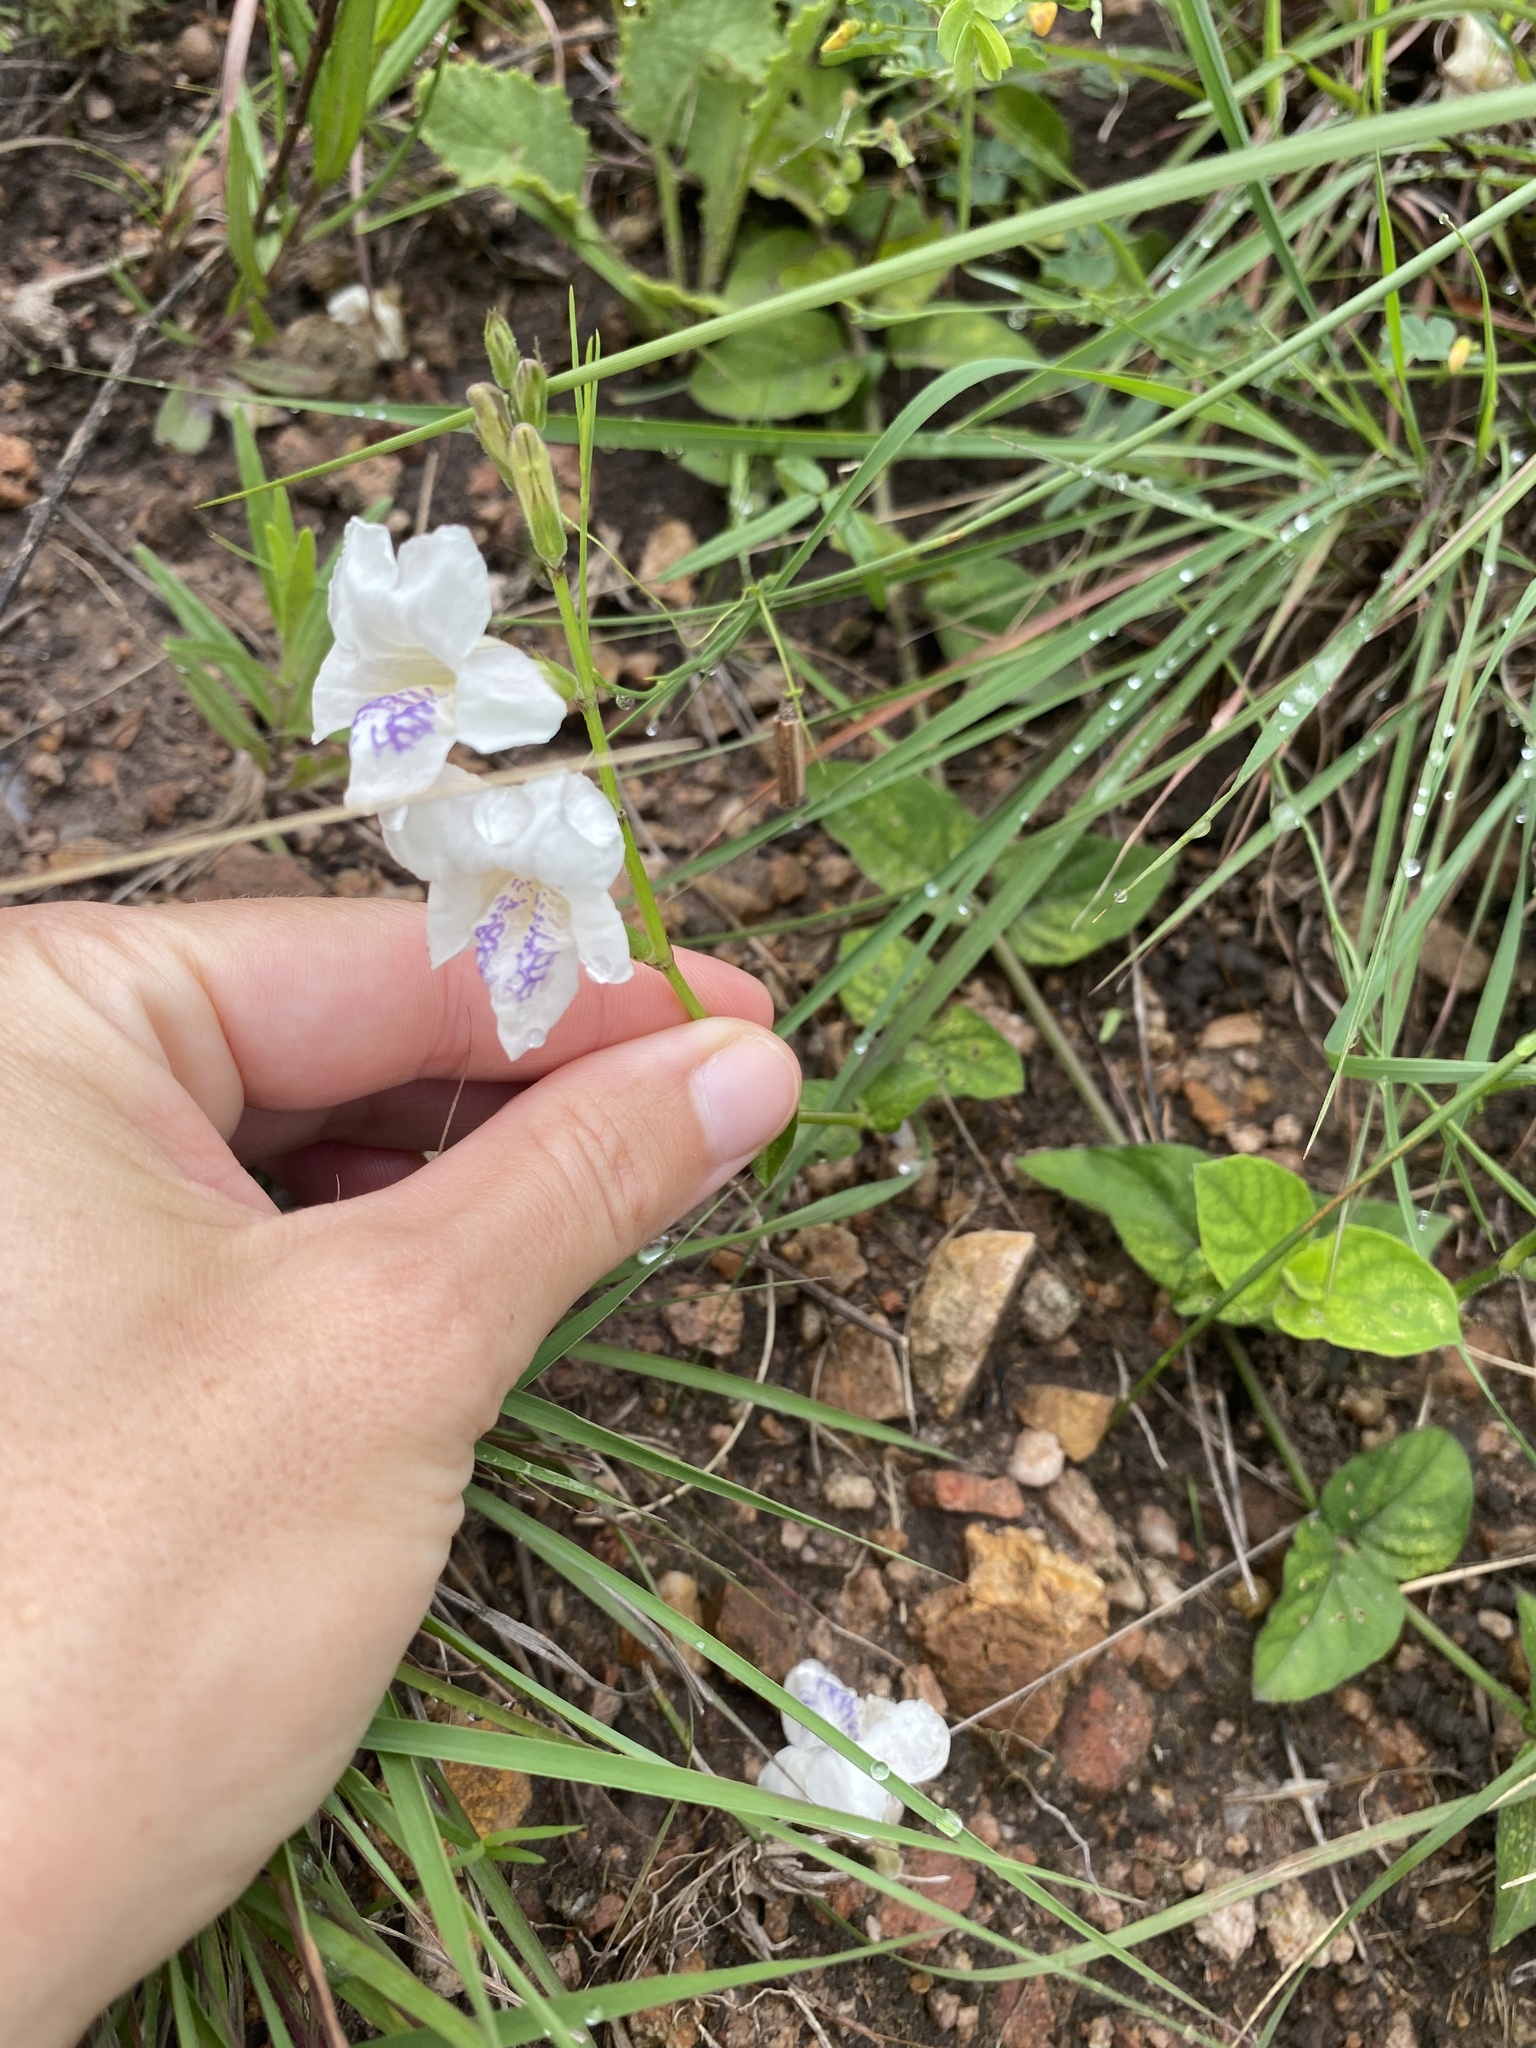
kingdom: Plantae
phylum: Tracheophyta
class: Magnoliopsida
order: Lamiales
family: Acanthaceae
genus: Asystasia
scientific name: Asystasia intrusa
